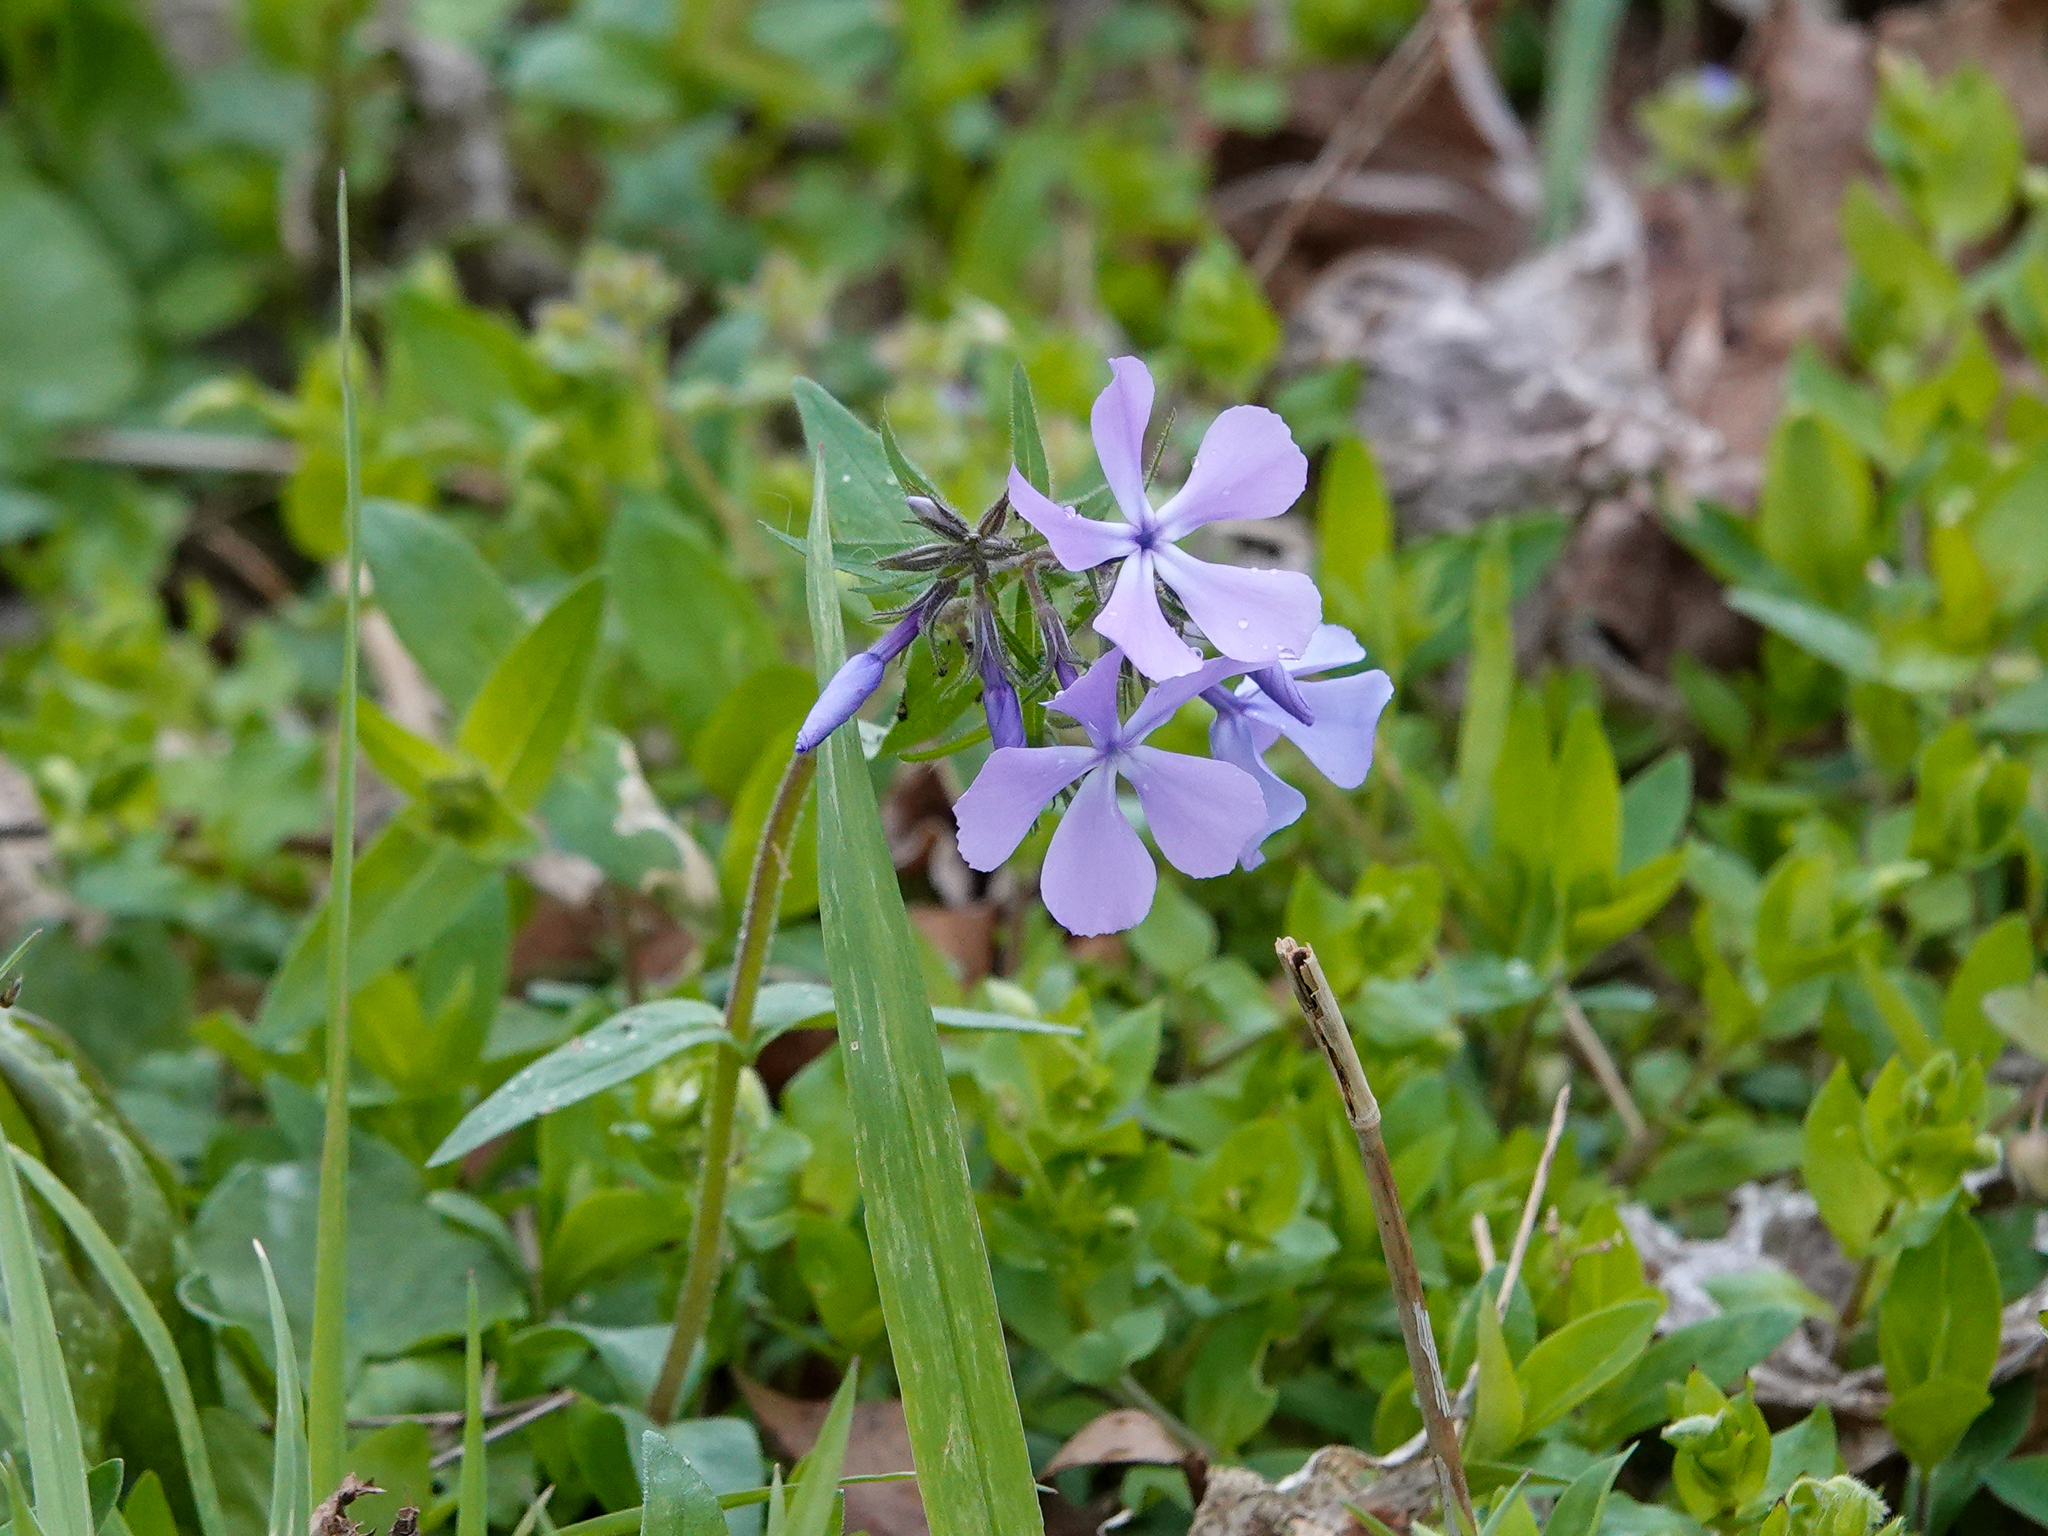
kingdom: Plantae
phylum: Tracheophyta
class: Magnoliopsida
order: Ericales
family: Polemoniaceae
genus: Phlox
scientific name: Phlox divaricata
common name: Blue phlox
